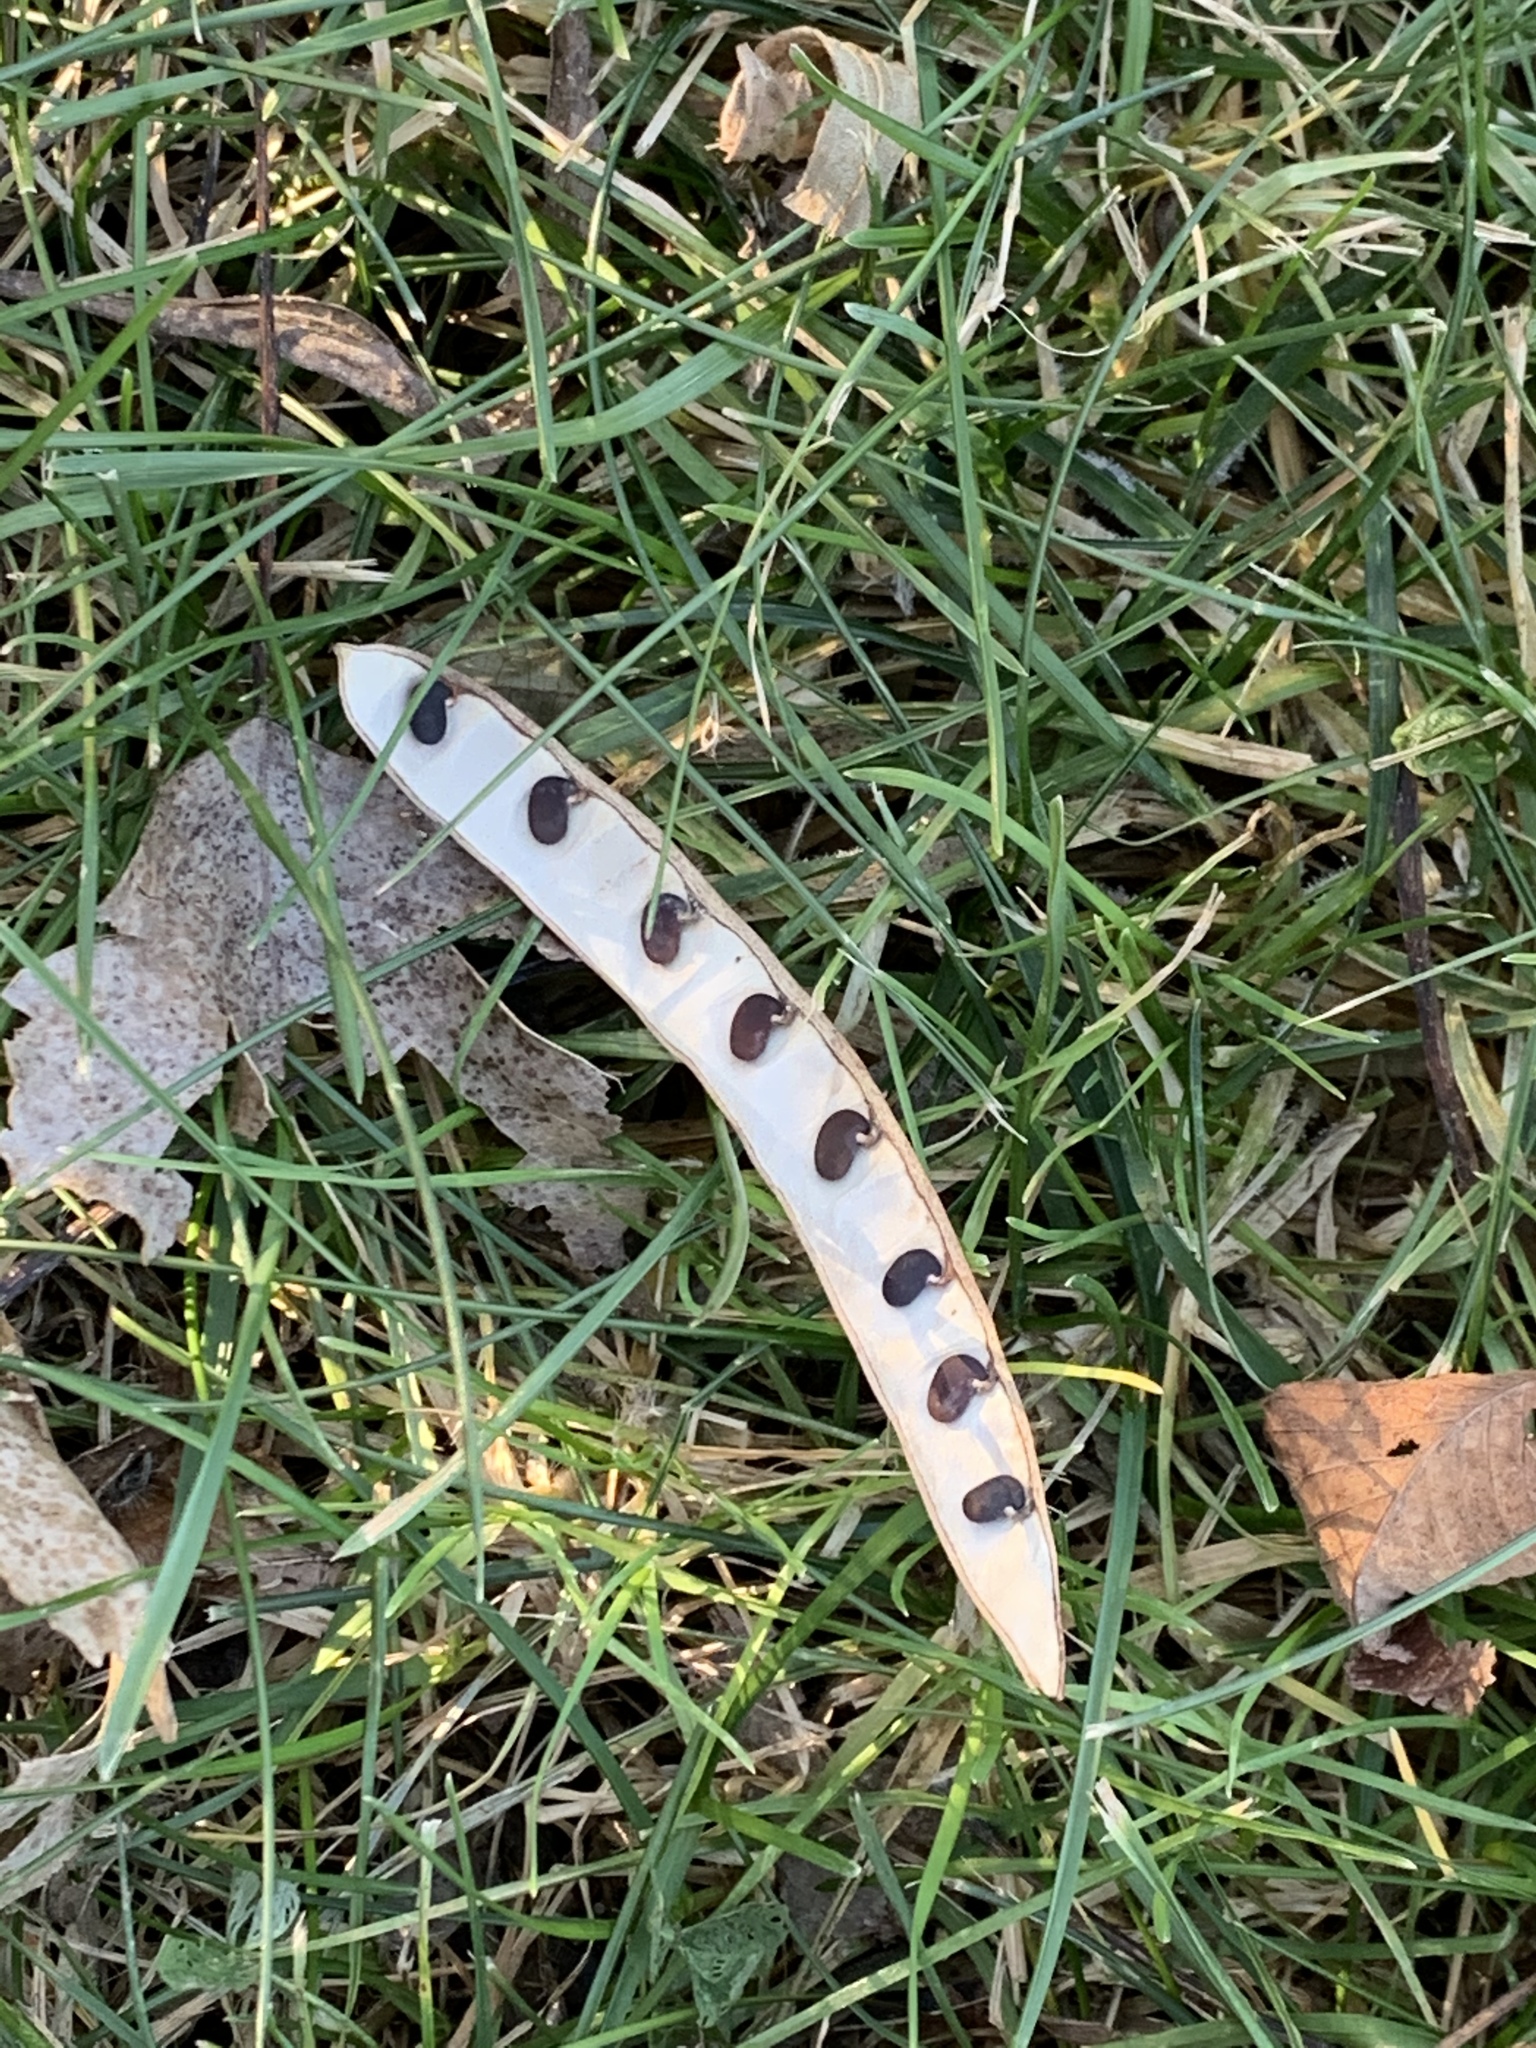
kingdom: Plantae
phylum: Tracheophyta
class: Magnoliopsida
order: Fabales
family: Fabaceae
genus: Robinia
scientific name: Robinia pseudoacacia
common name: Black locust
